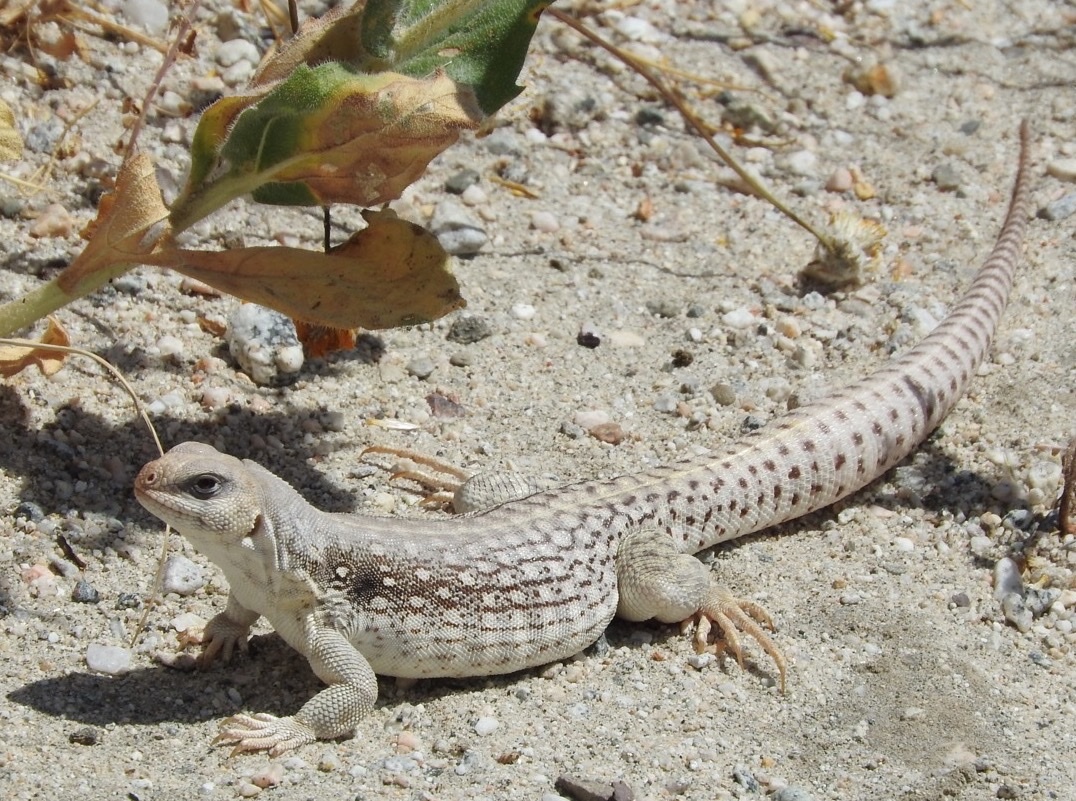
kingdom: Animalia
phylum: Chordata
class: Squamata
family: Iguanidae
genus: Dipsosaurus
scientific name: Dipsosaurus dorsalis
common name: Desert iguana
